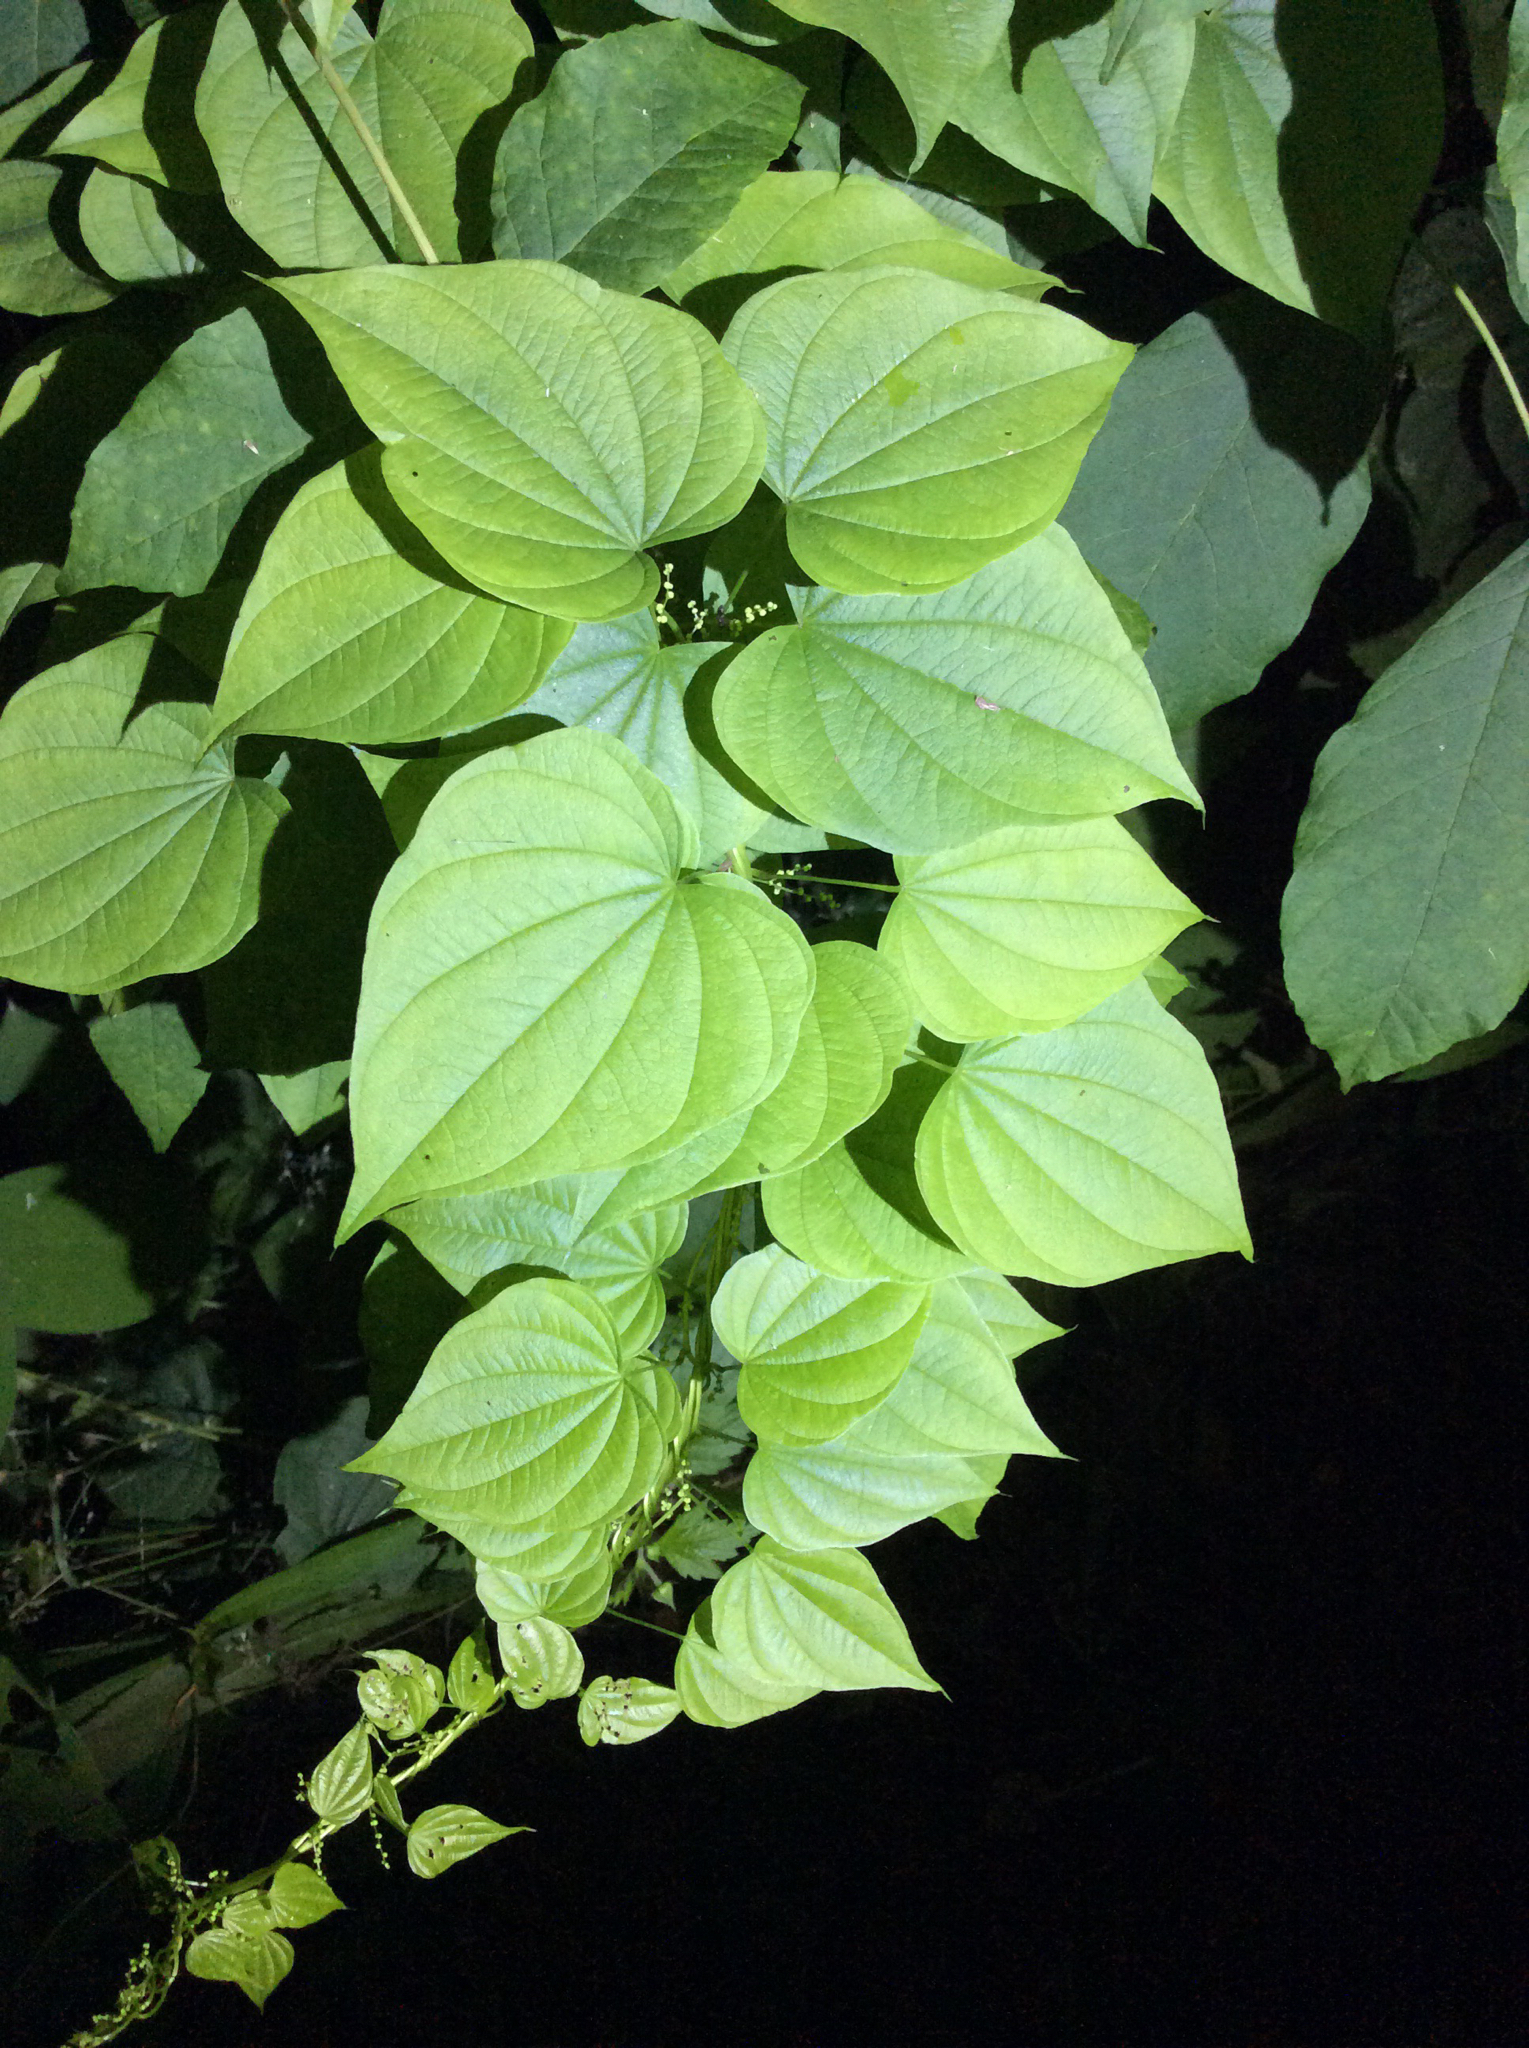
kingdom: Plantae
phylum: Tracheophyta
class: Liliopsida
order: Dioscoreales
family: Dioscoreaceae
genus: Dioscorea
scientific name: Dioscorea villosa
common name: Wild yam
